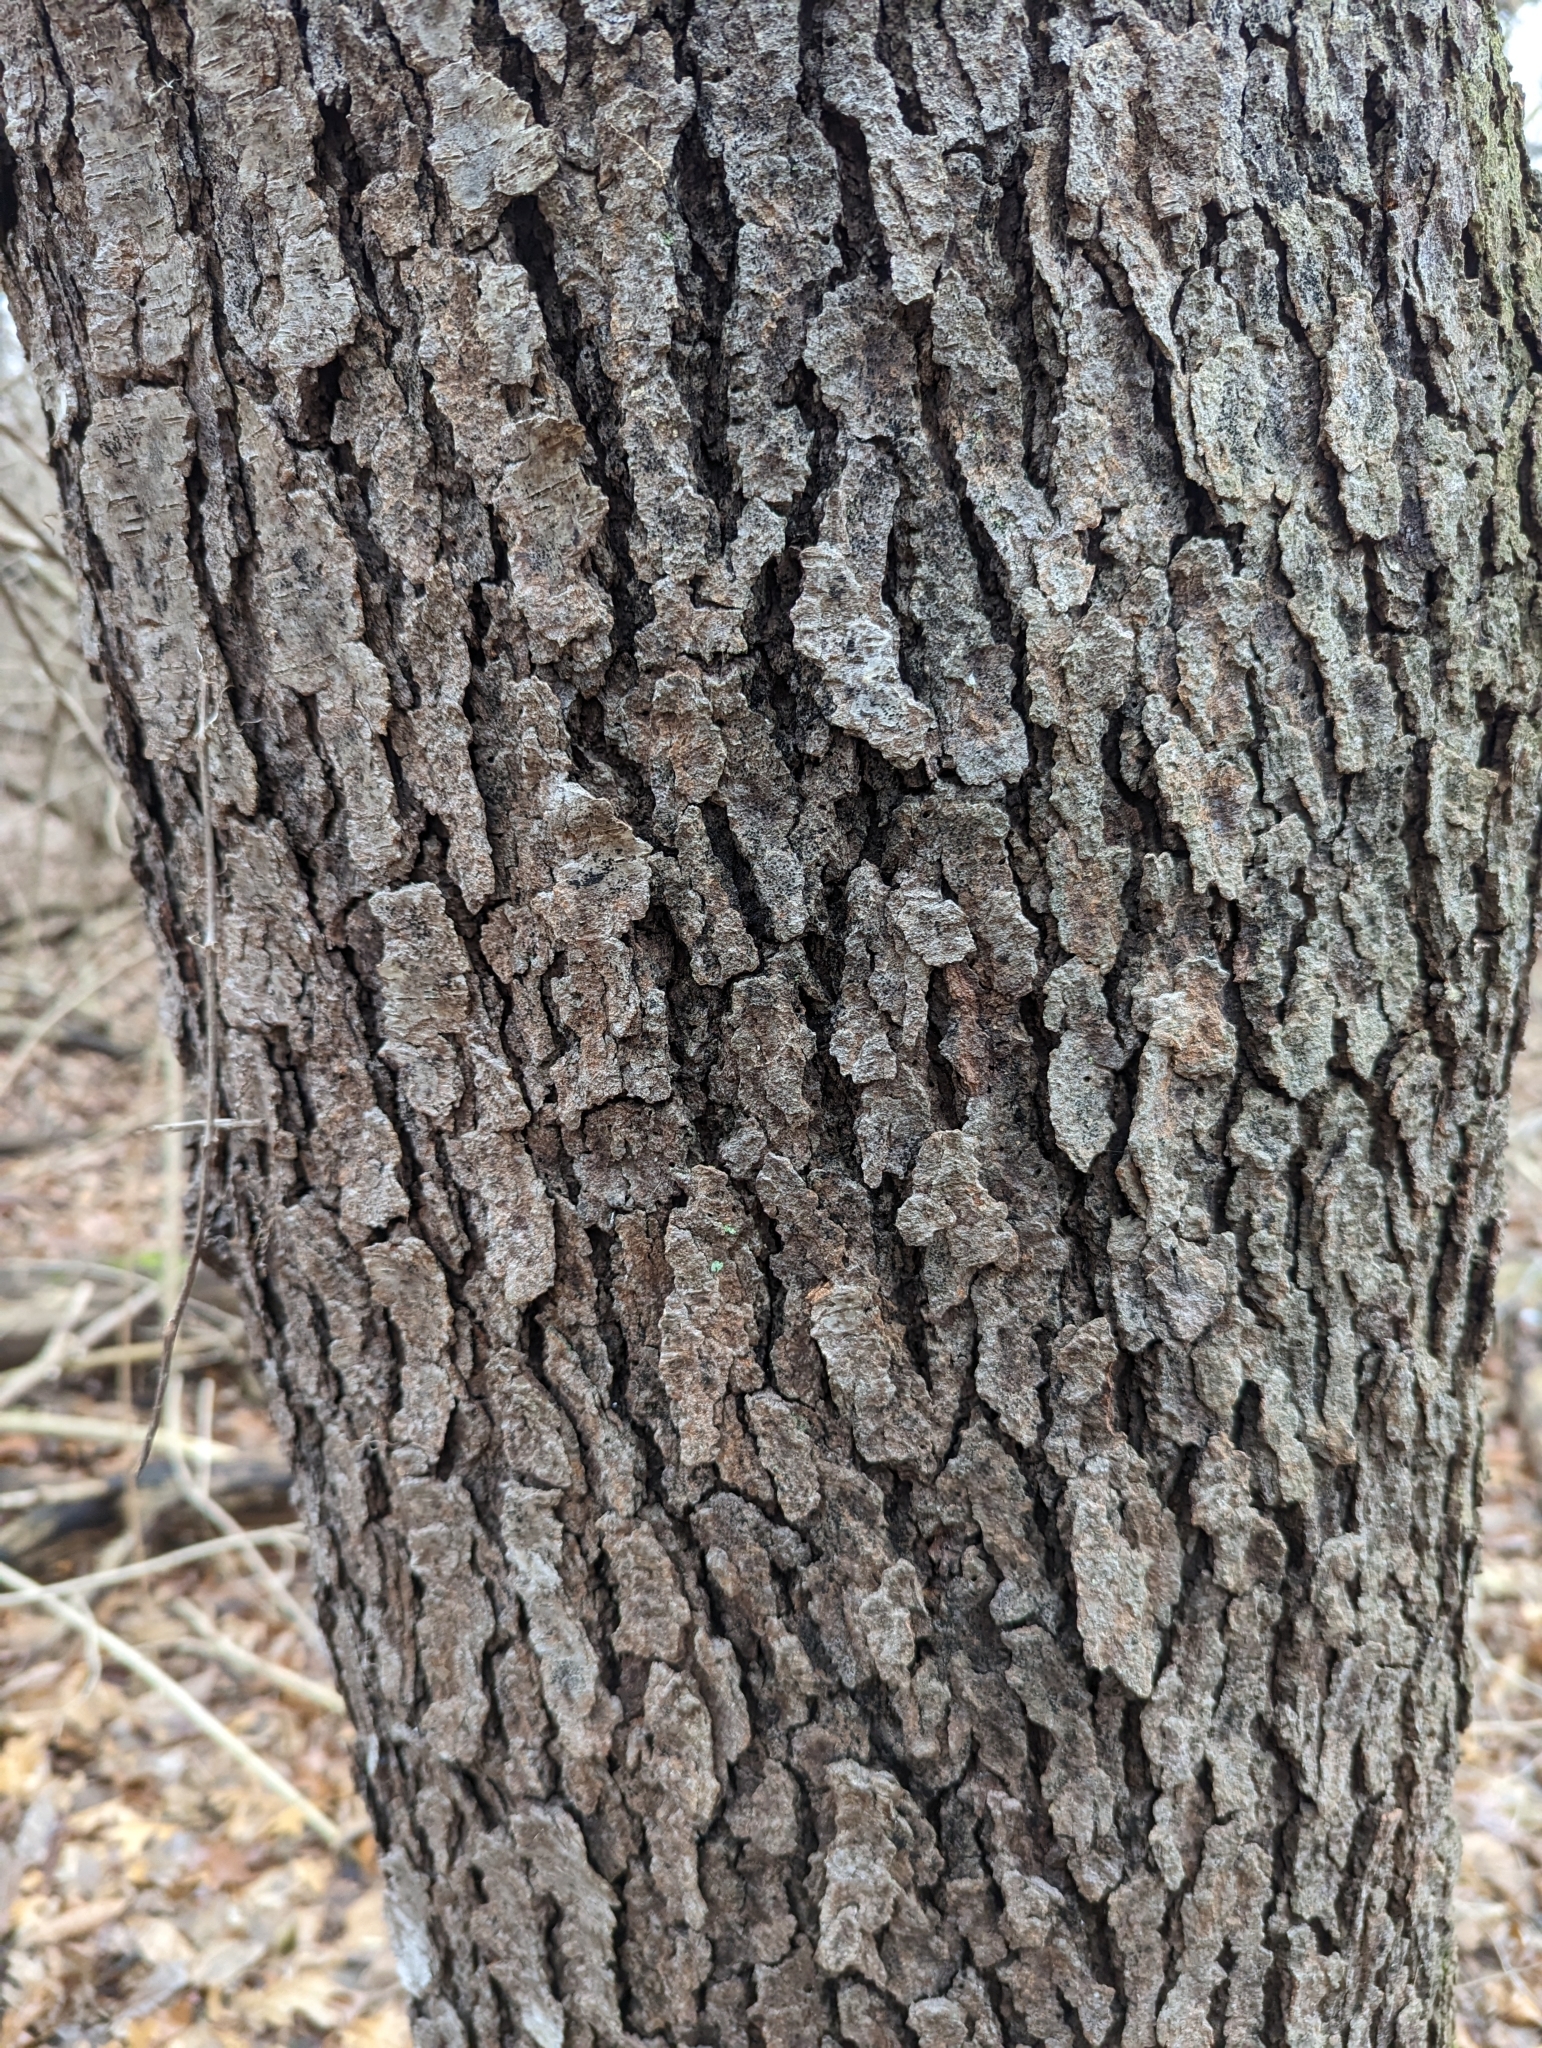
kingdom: Plantae
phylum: Tracheophyta
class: Magnoliopsida
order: Rosales
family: Rosaceae
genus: Prunus
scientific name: Prunus serotina
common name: Black cherry
